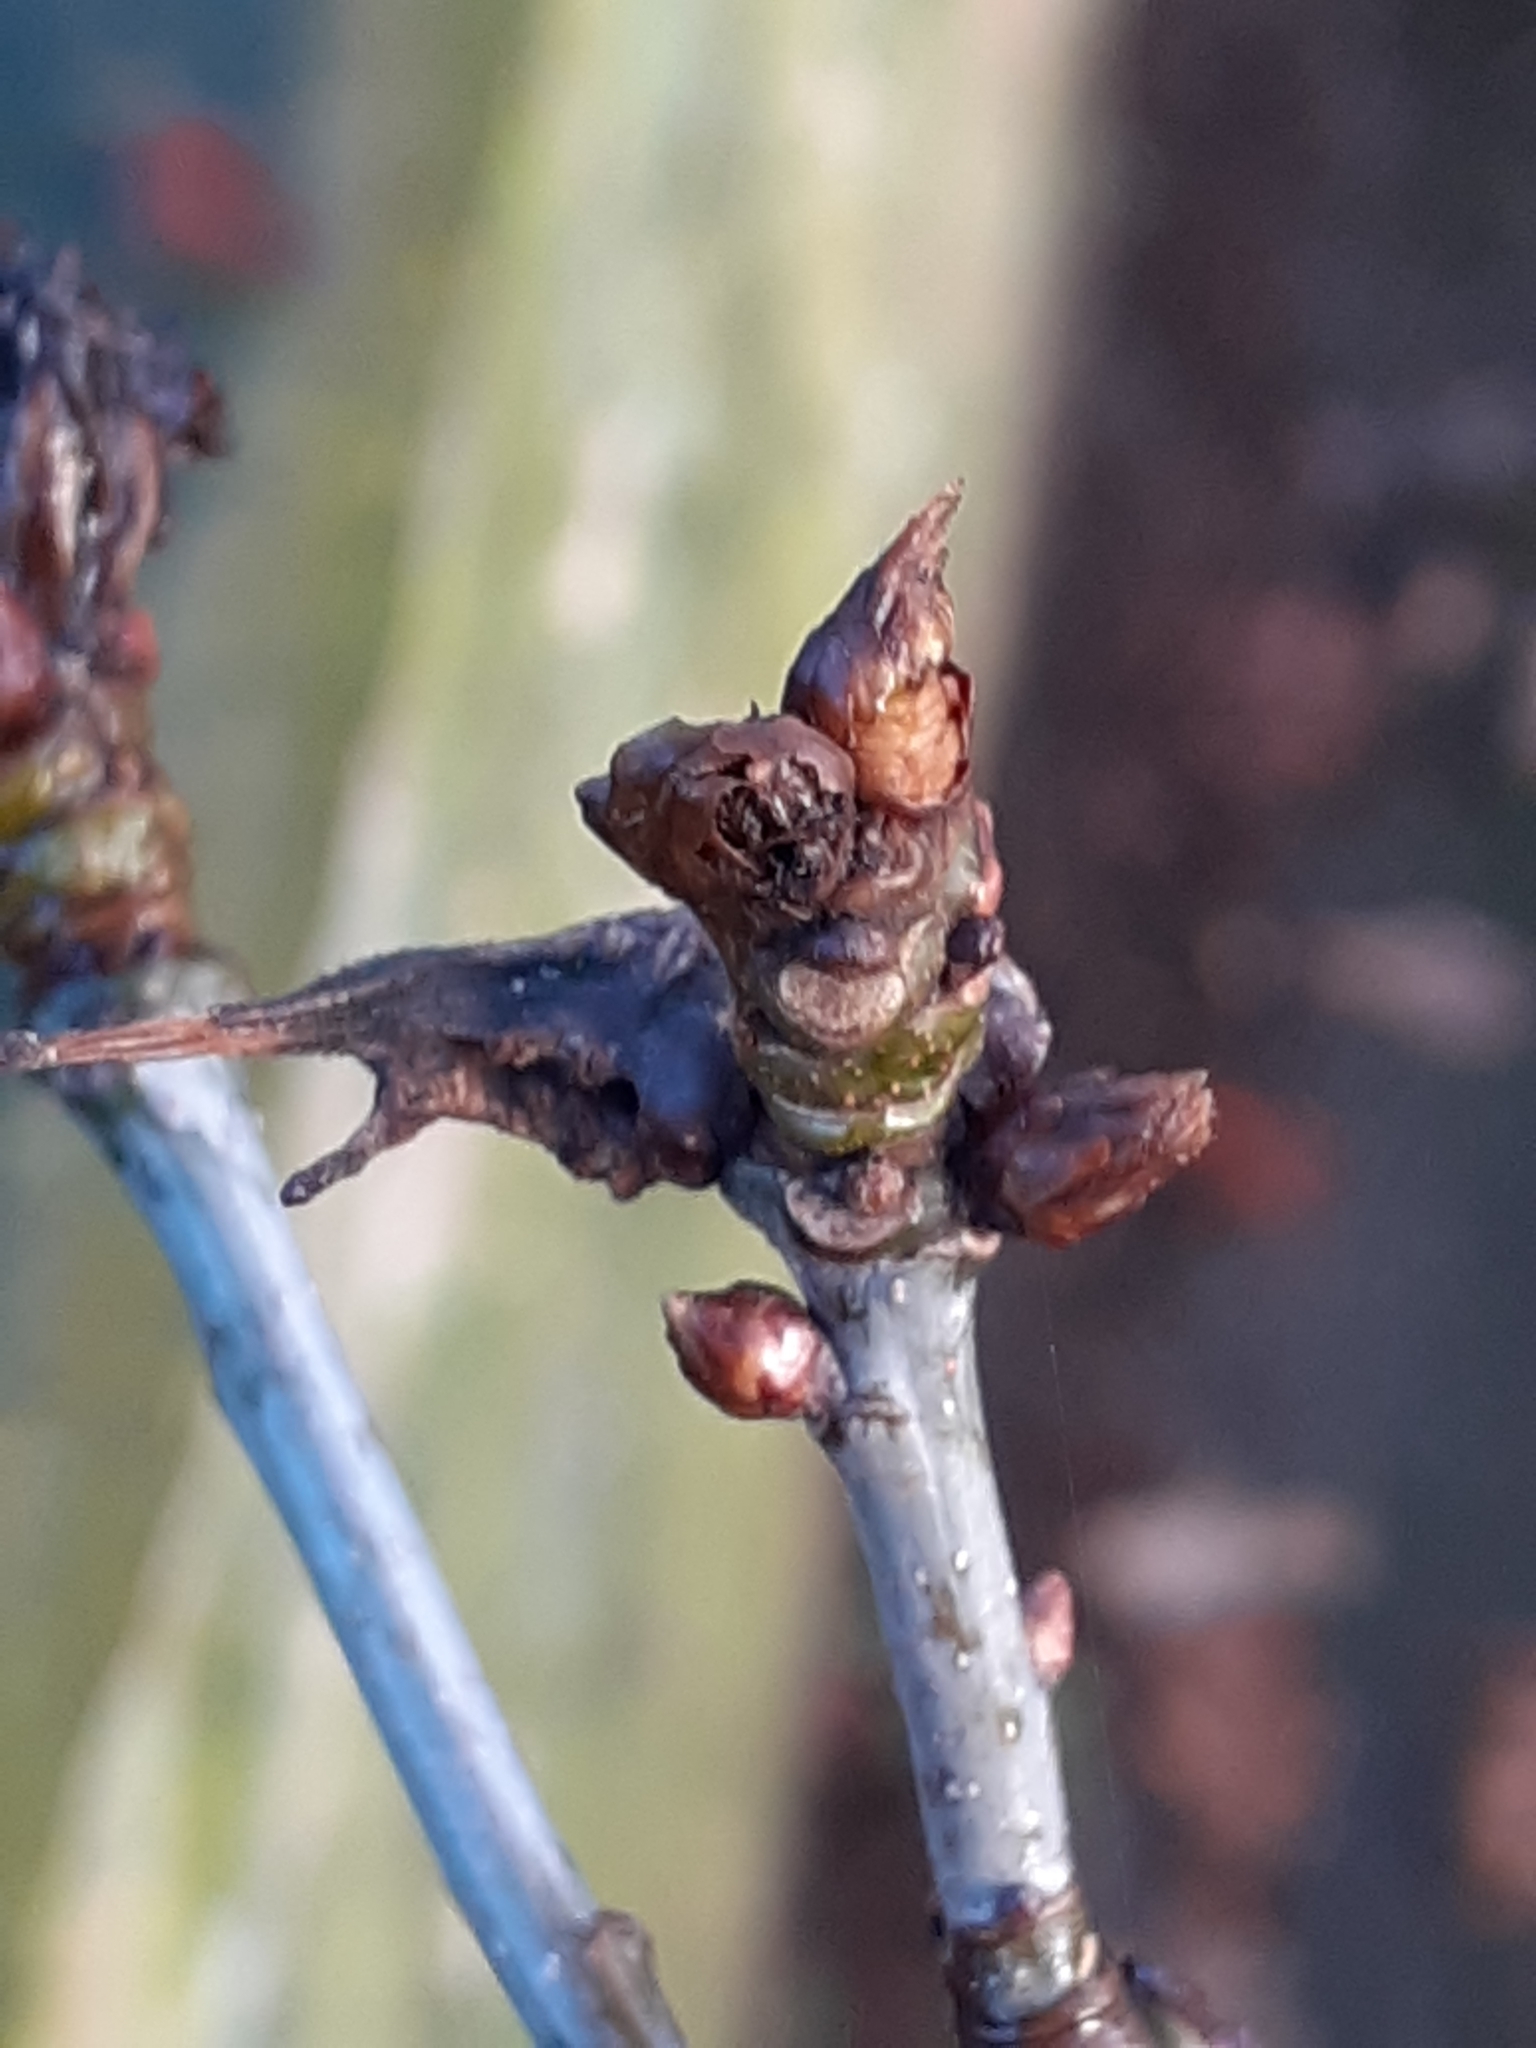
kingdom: Animalia
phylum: Arthropoda
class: Insecta
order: Hymenoptera
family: Cynipidae
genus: Andricus
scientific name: Andricus aries
